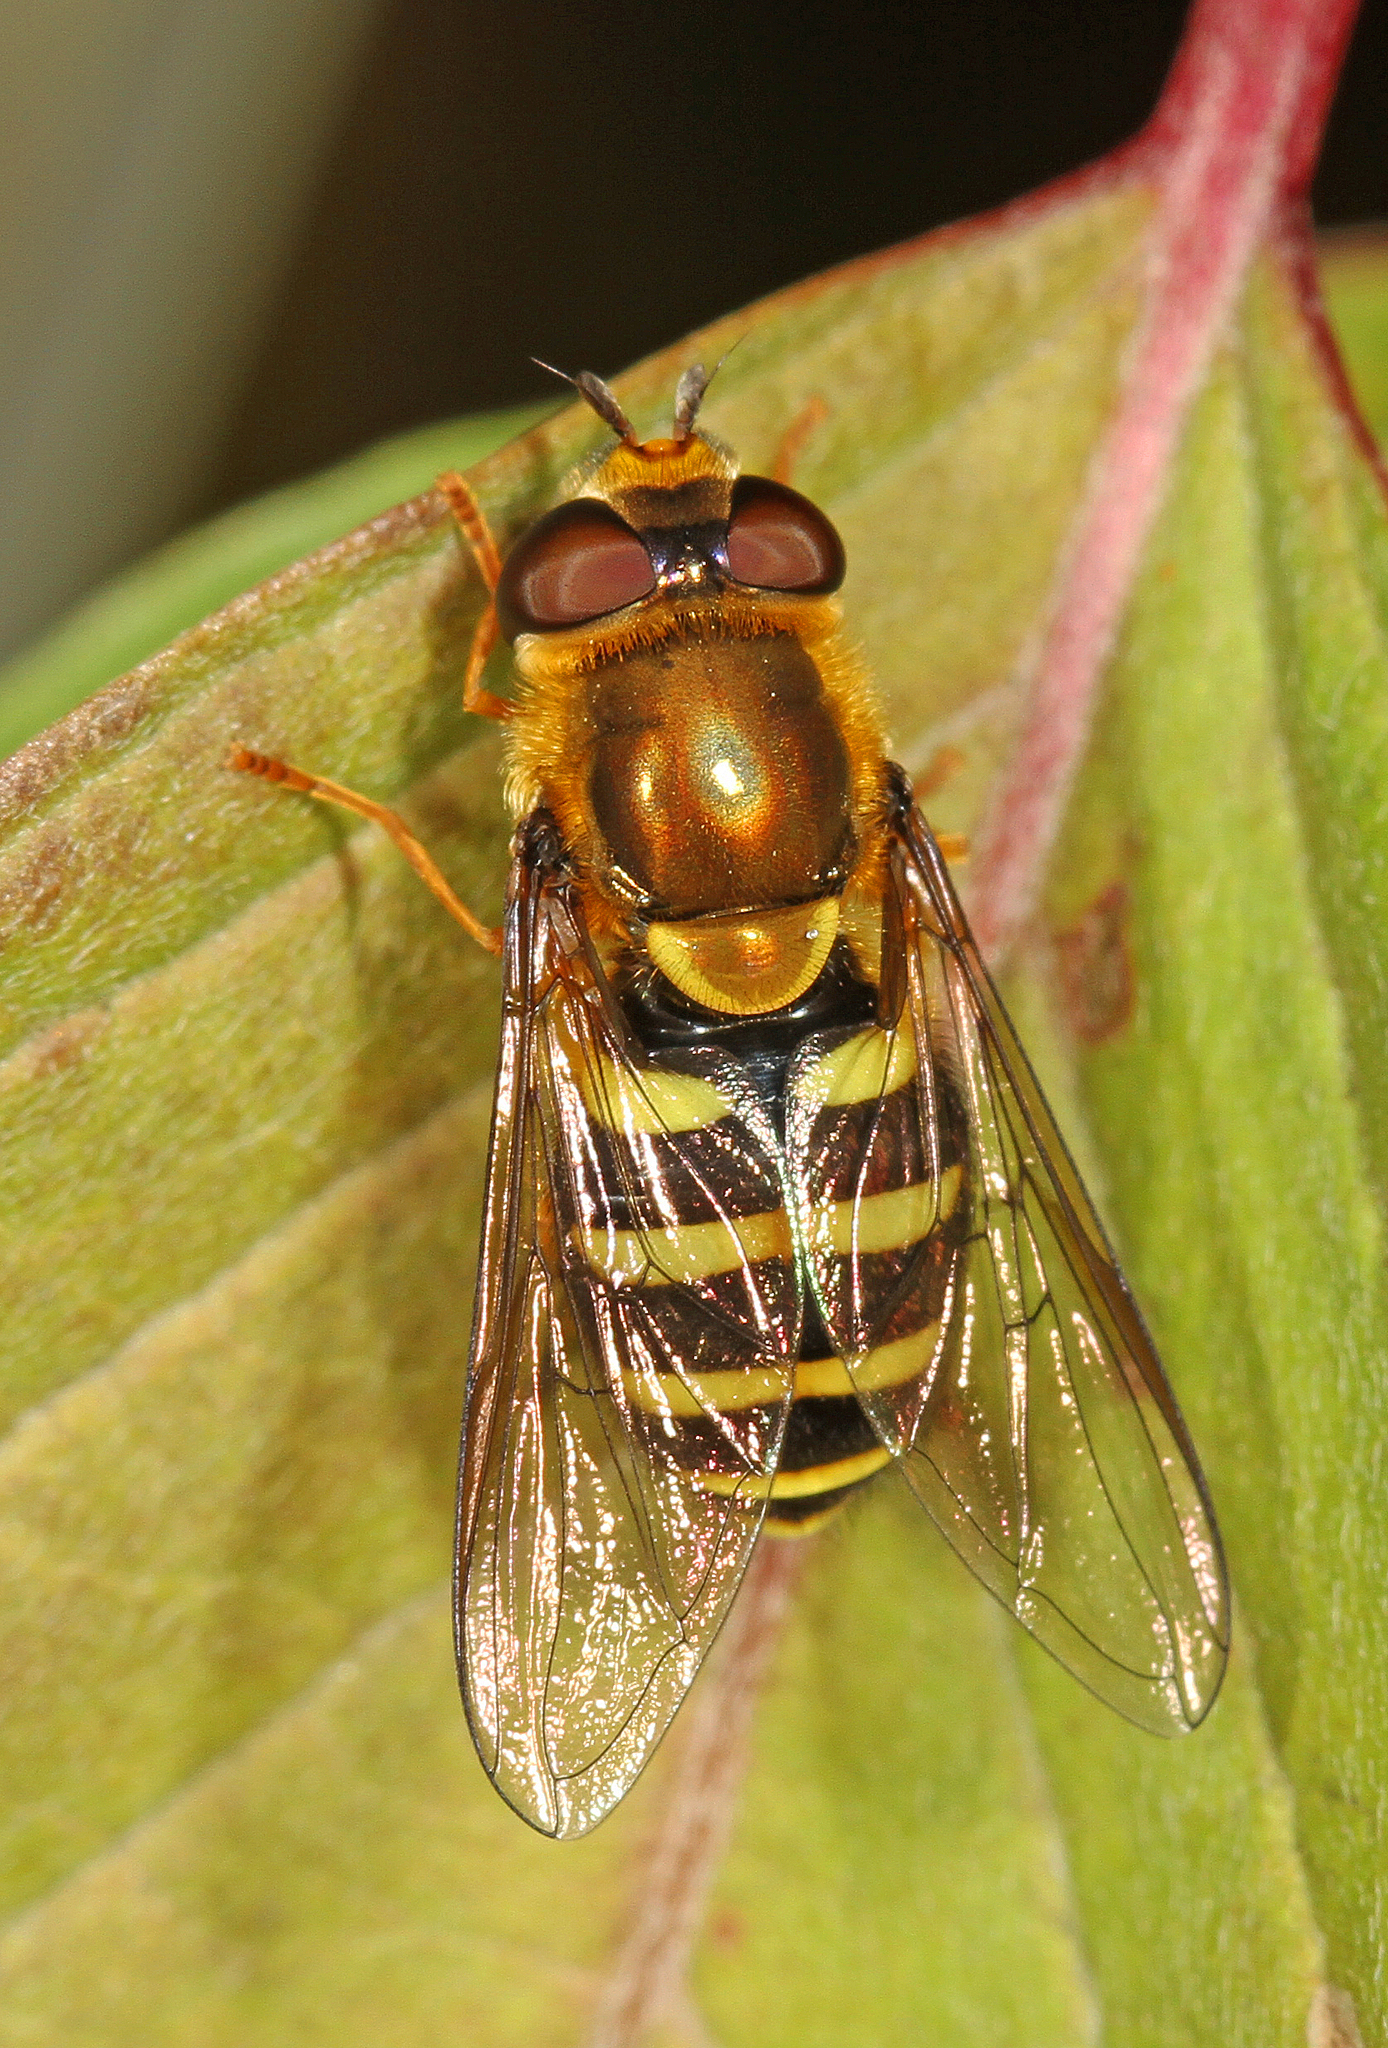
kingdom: Animalia
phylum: Arthropoda
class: Insecta
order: Diptera
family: Syrphidae
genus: Syrphus
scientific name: Syrphus opinator
